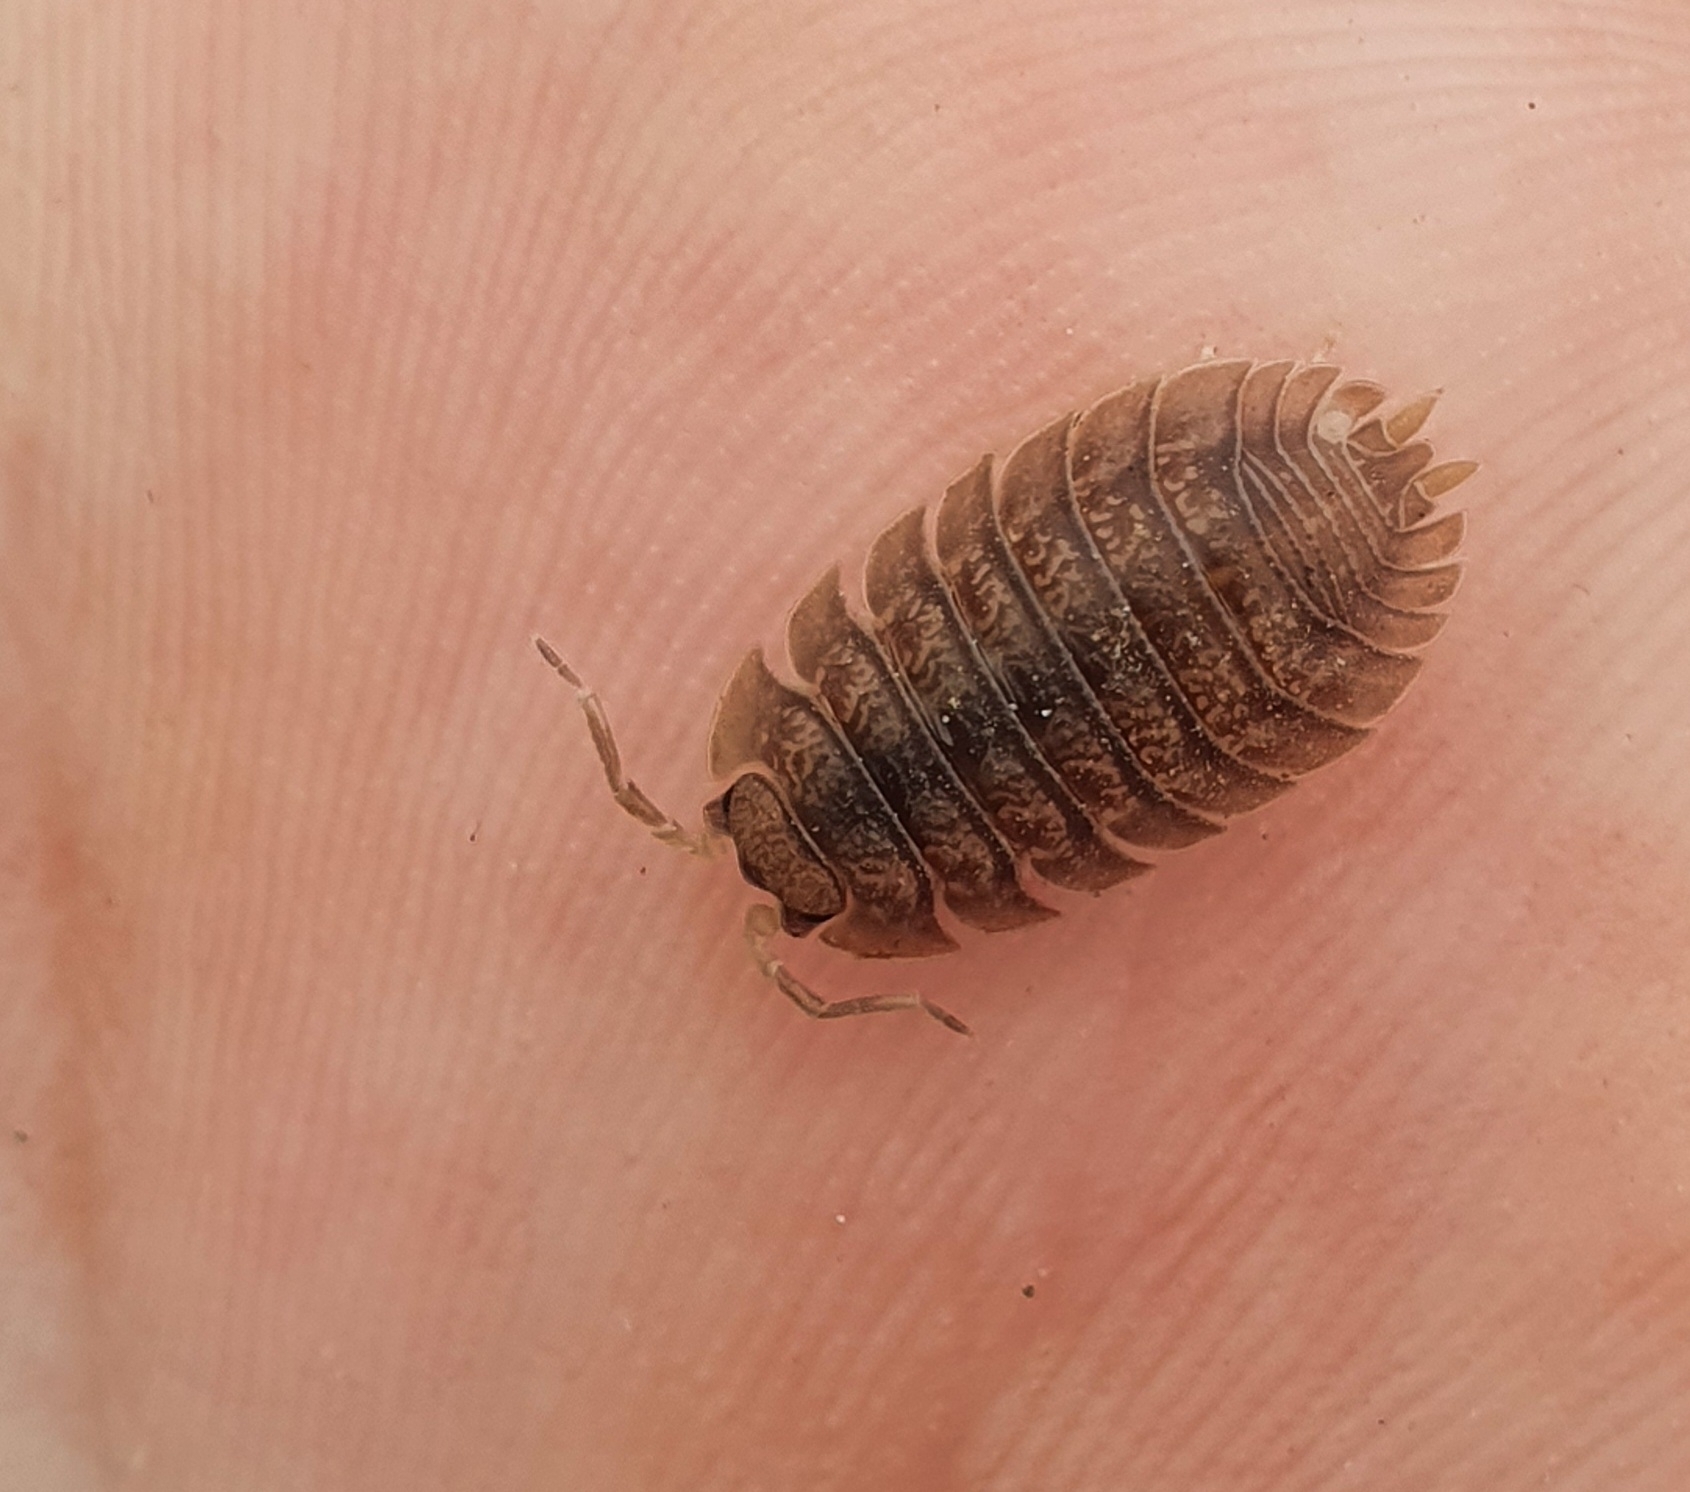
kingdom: Animalia
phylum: Arthropoda
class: Malacostraca
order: Isopoda
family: Porcellionidae
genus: Porcellio
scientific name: Porcellio dilatatus
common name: Isopod
